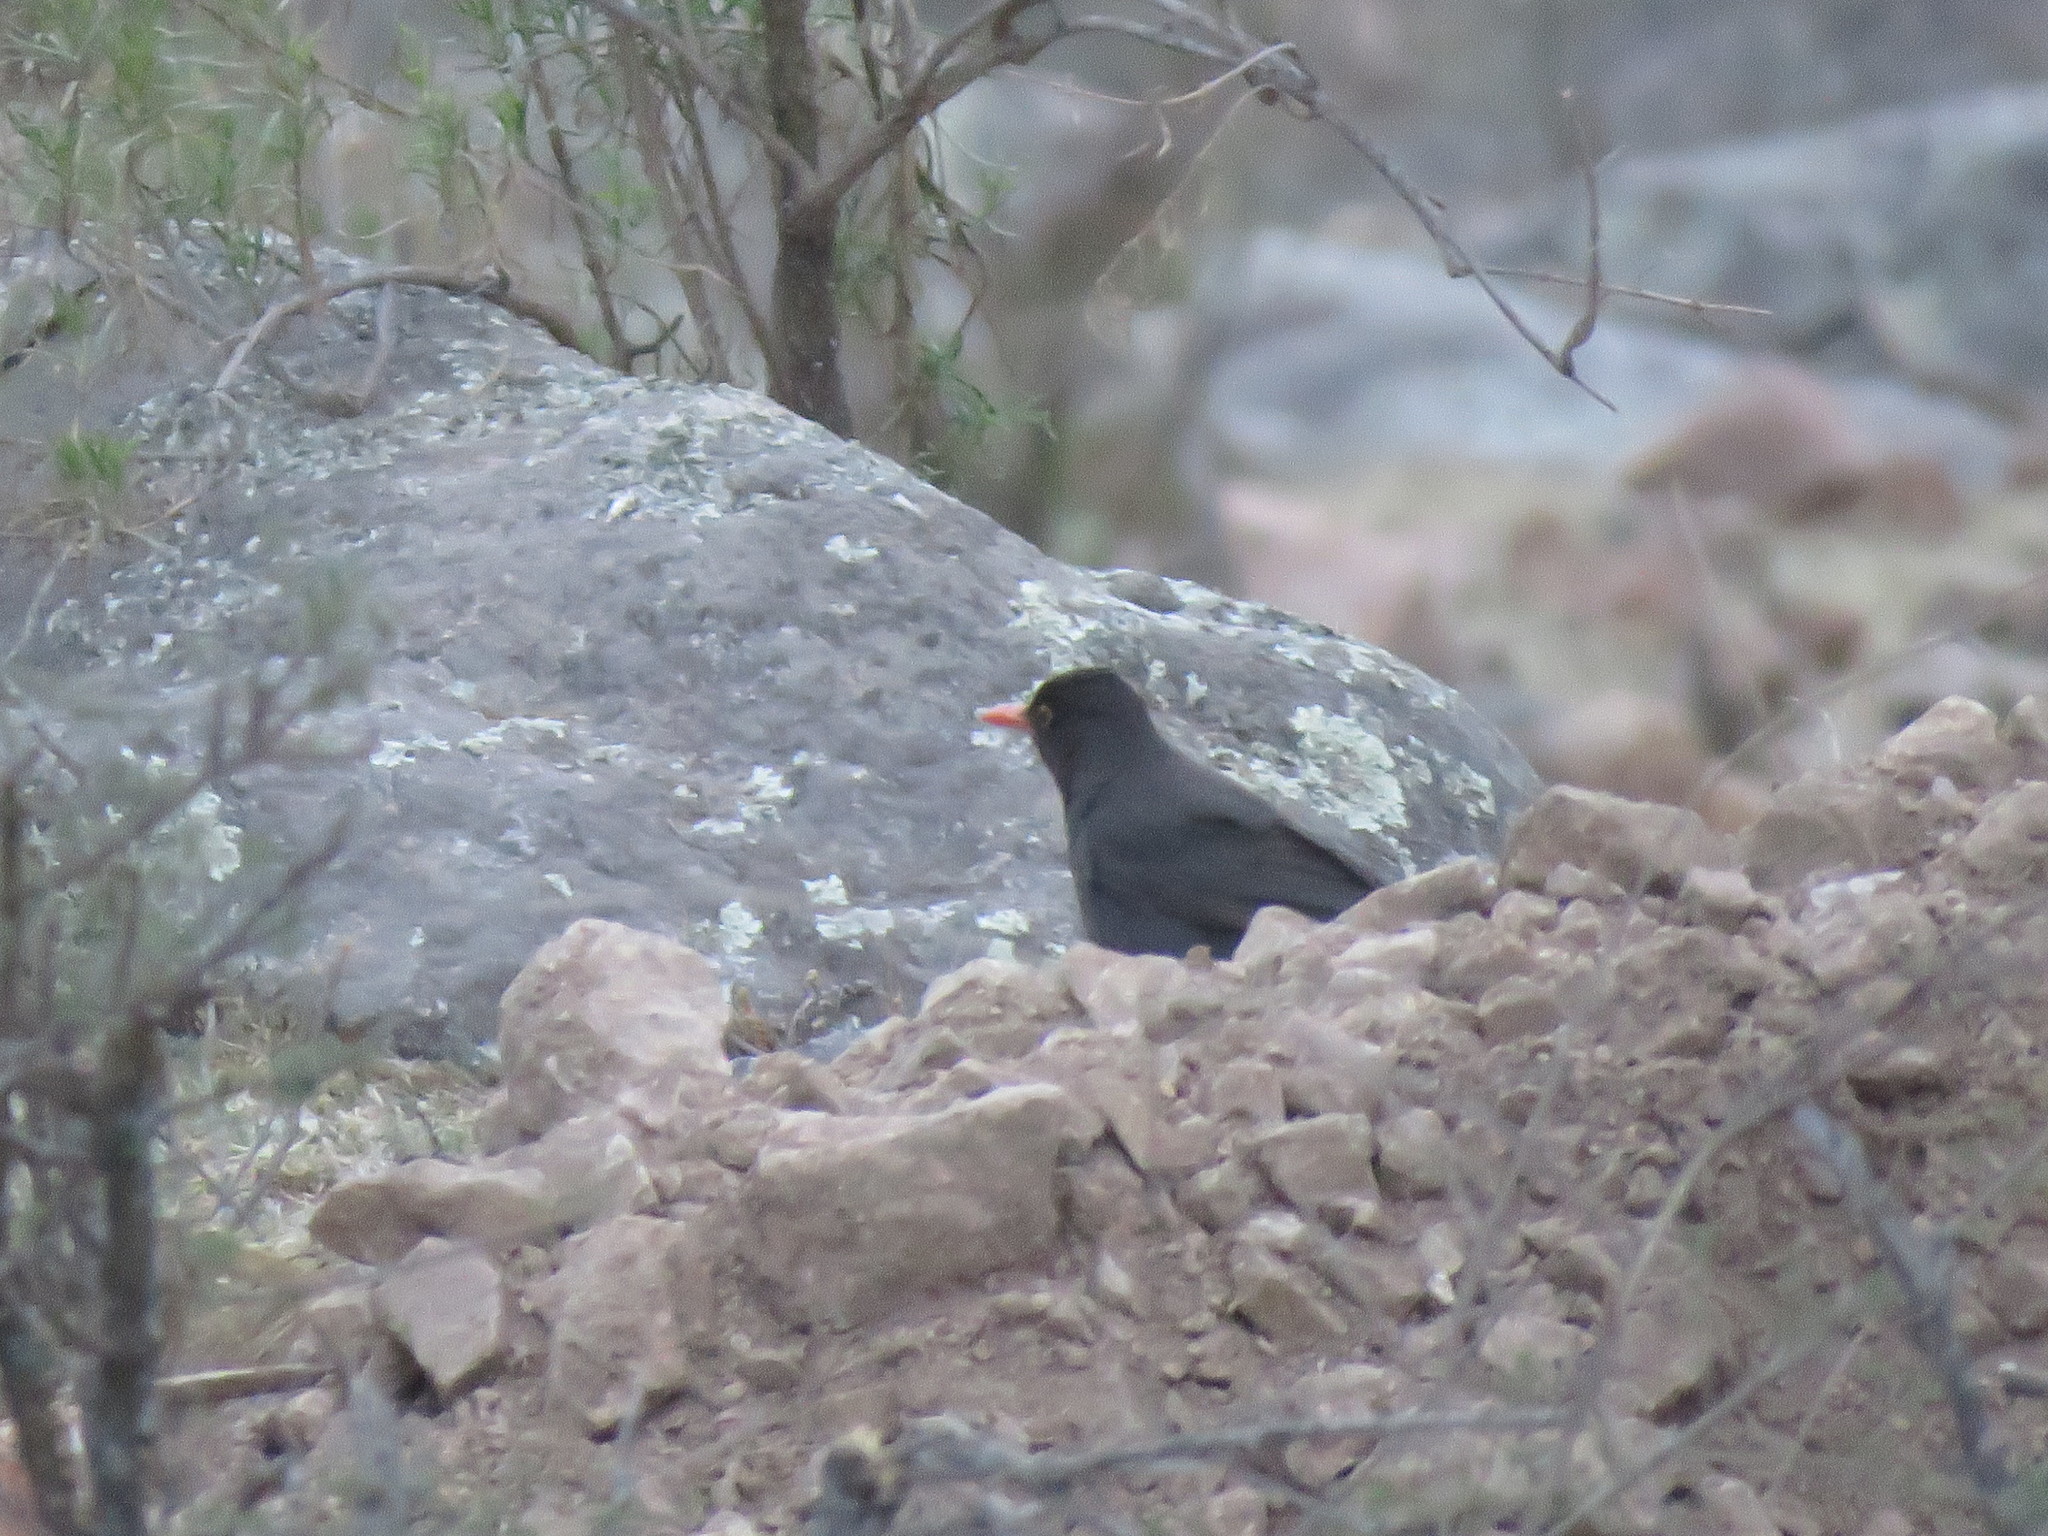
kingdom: Animalia
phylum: Chordata
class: Aves
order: Passeriformes
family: Turdidae
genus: Turdus
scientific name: Turdus chiguanco
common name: Chiguanco thrush
